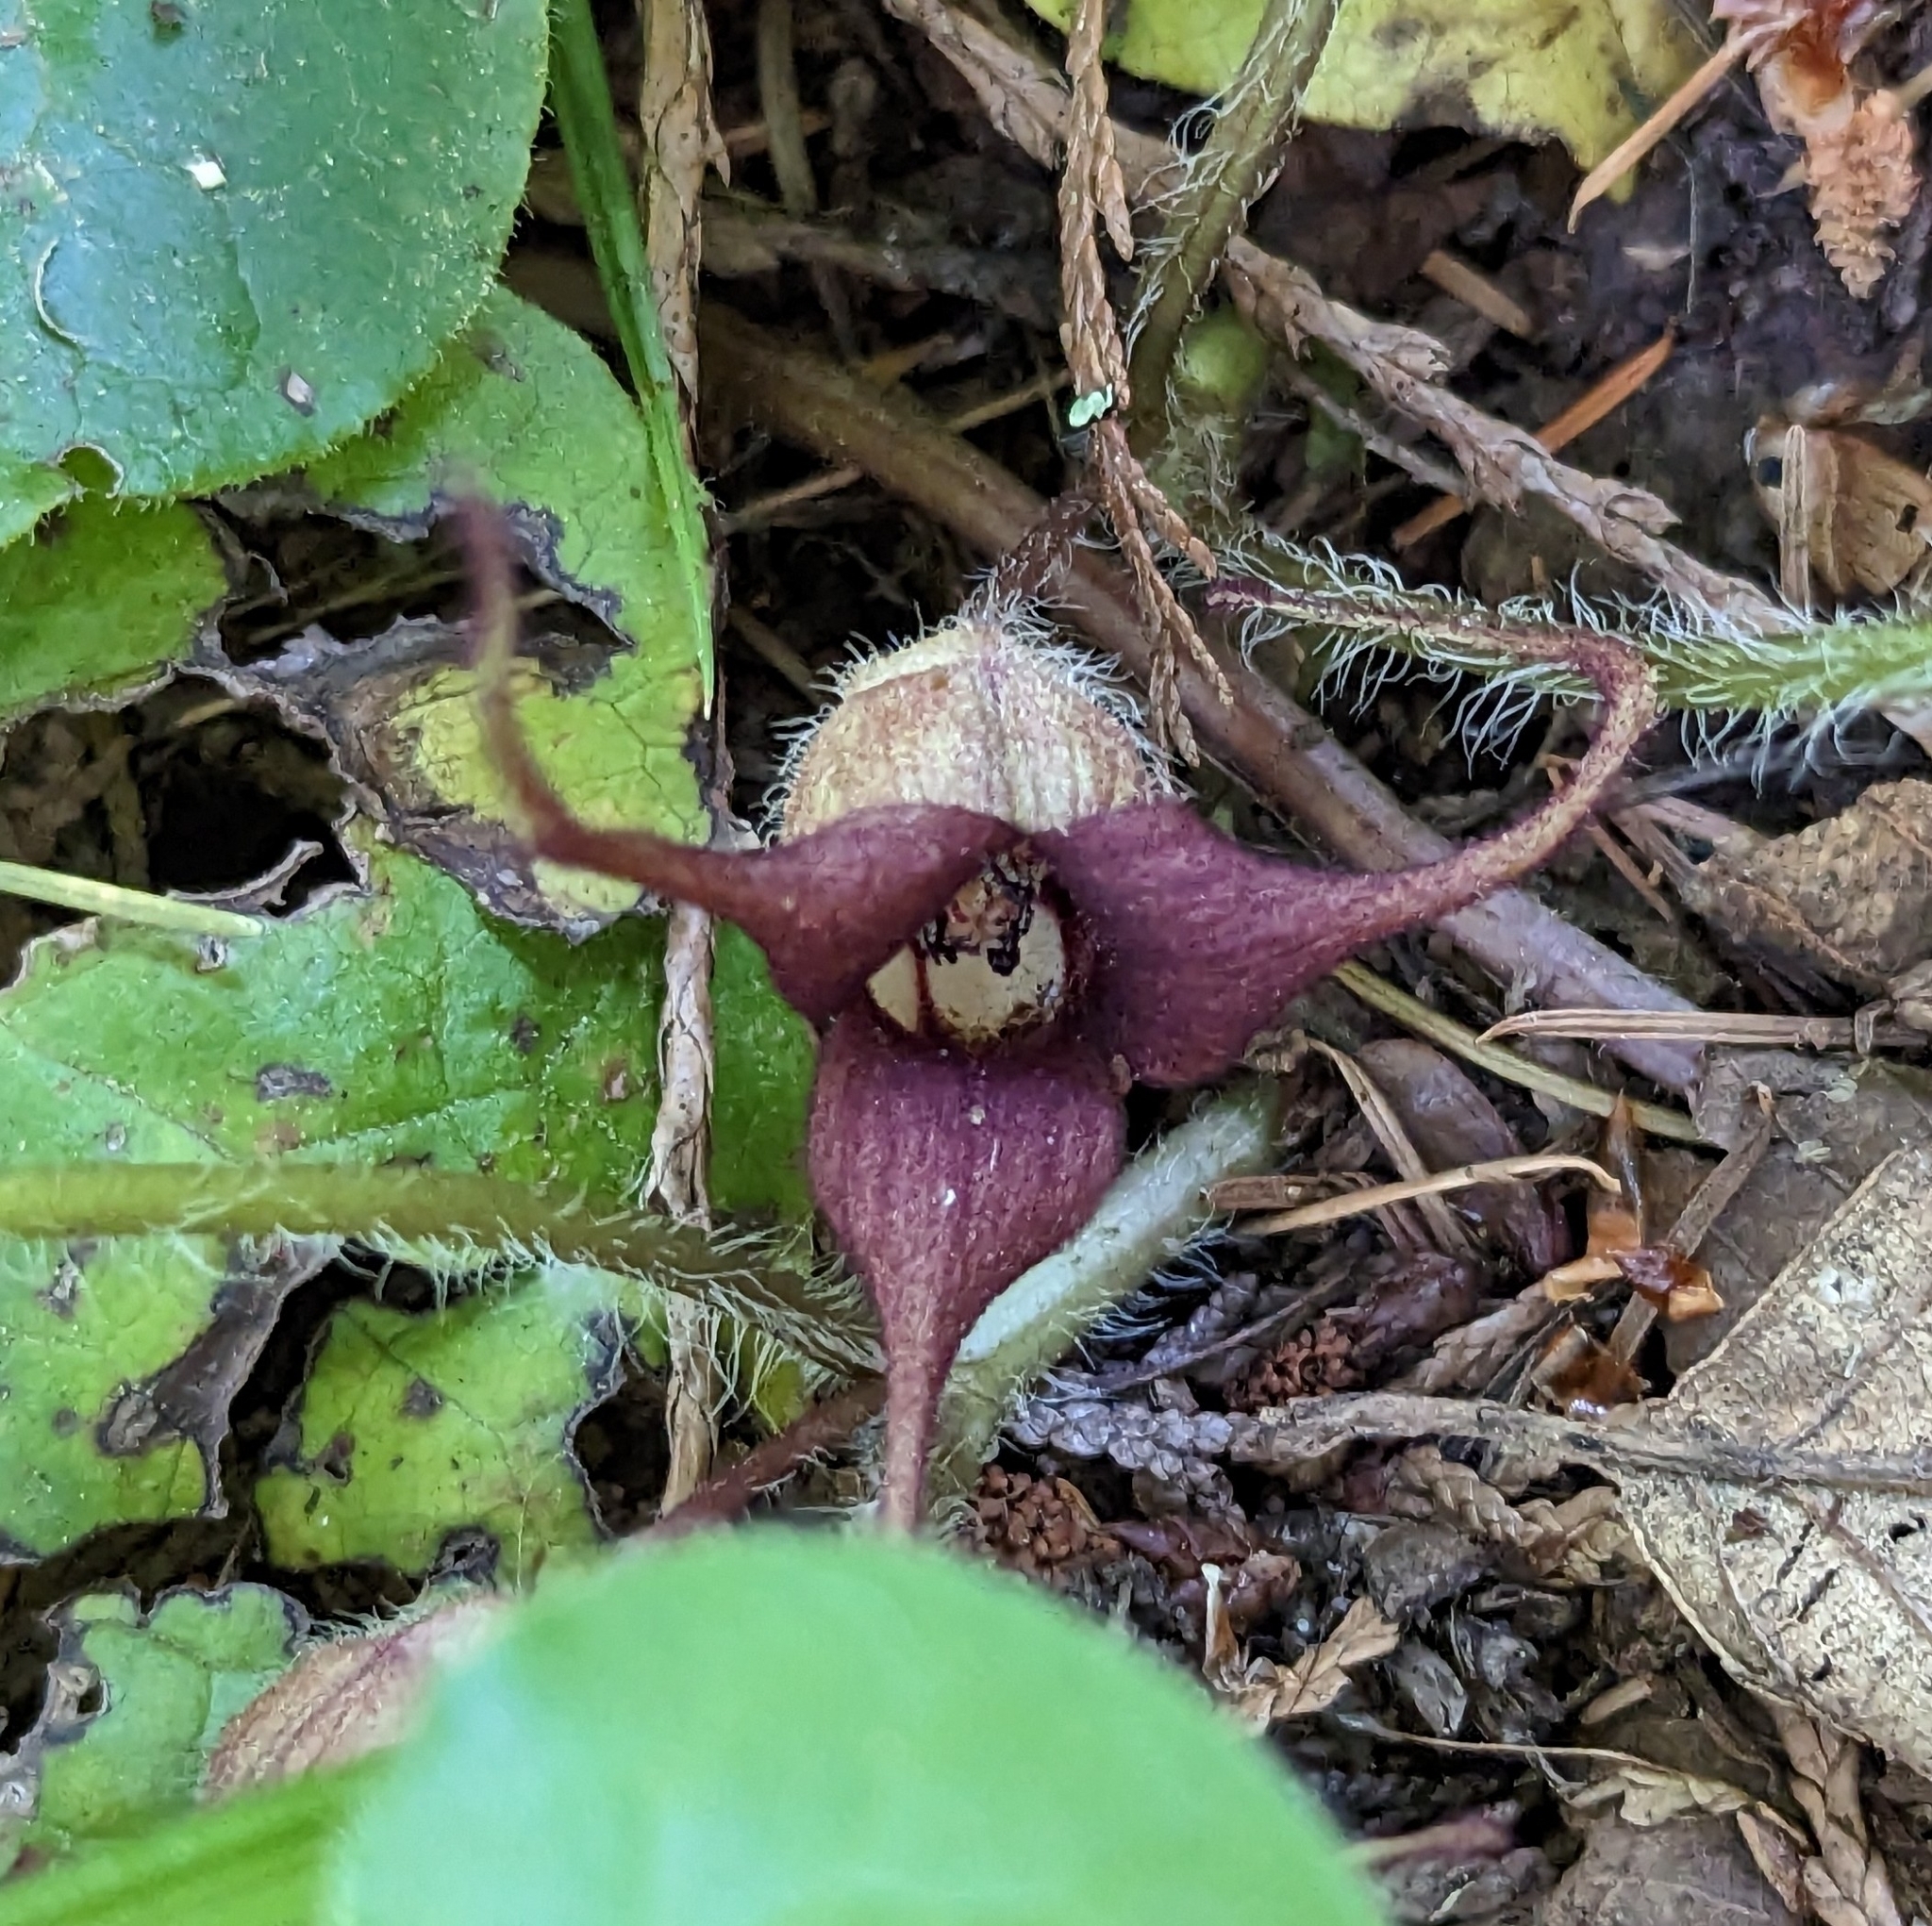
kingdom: Plantae
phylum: Tracheophyta
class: Magnoliopsida
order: Piperales
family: Aristolochiaceae
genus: Asarum
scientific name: Asarum caudatum
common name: Wild ginger
